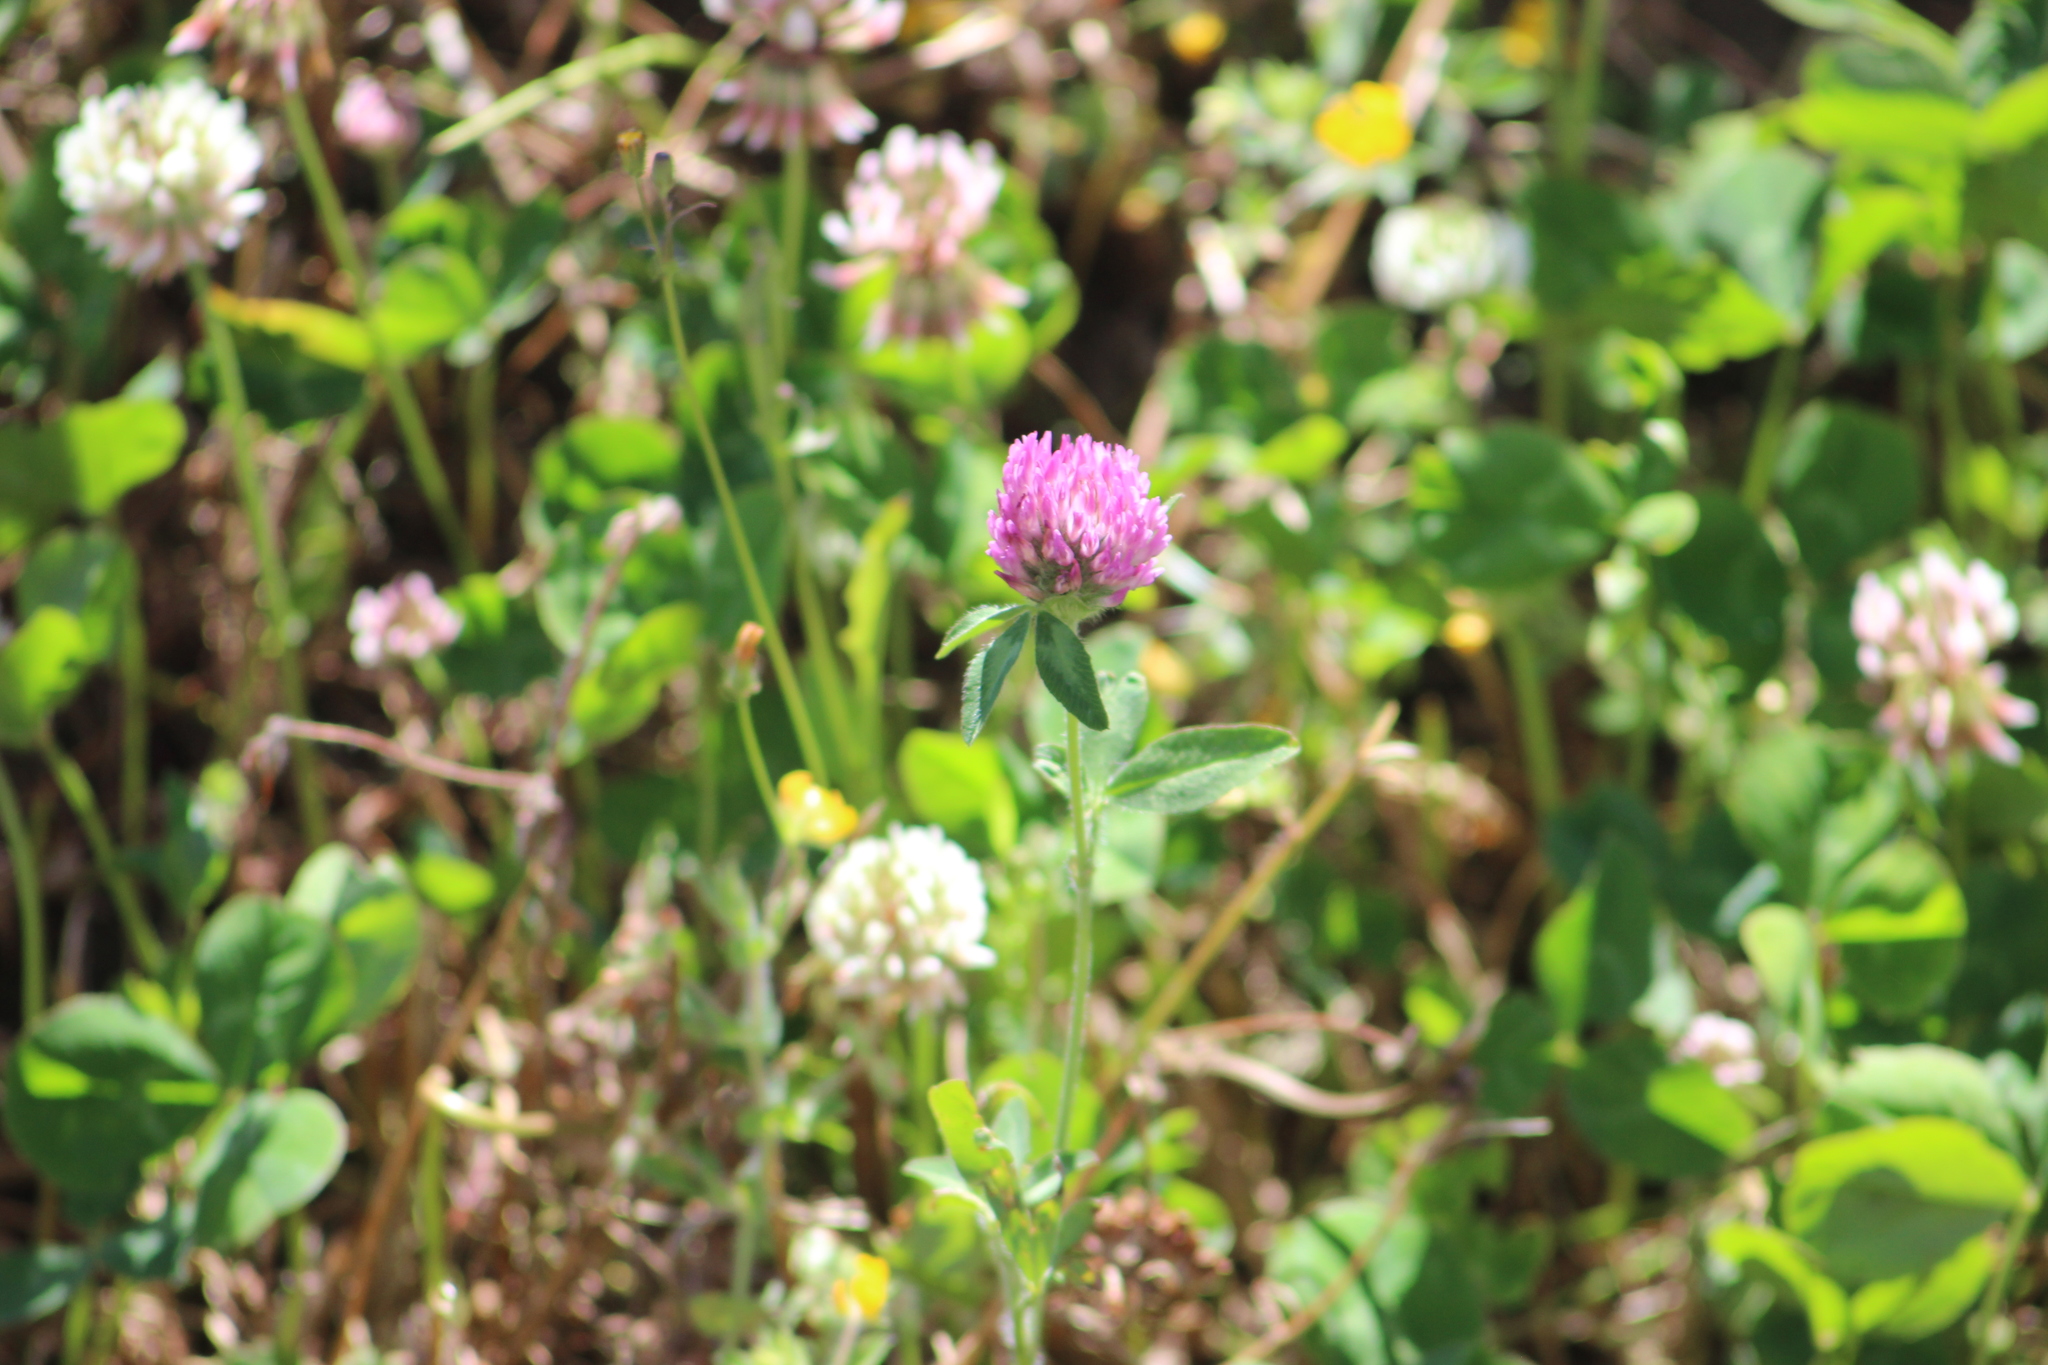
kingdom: Plantae
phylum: Tracheophyta
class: Magnoliopsida
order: Fabales
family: Fabaceae
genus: Trifolium
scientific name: Trifolium pratense
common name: Red clover
